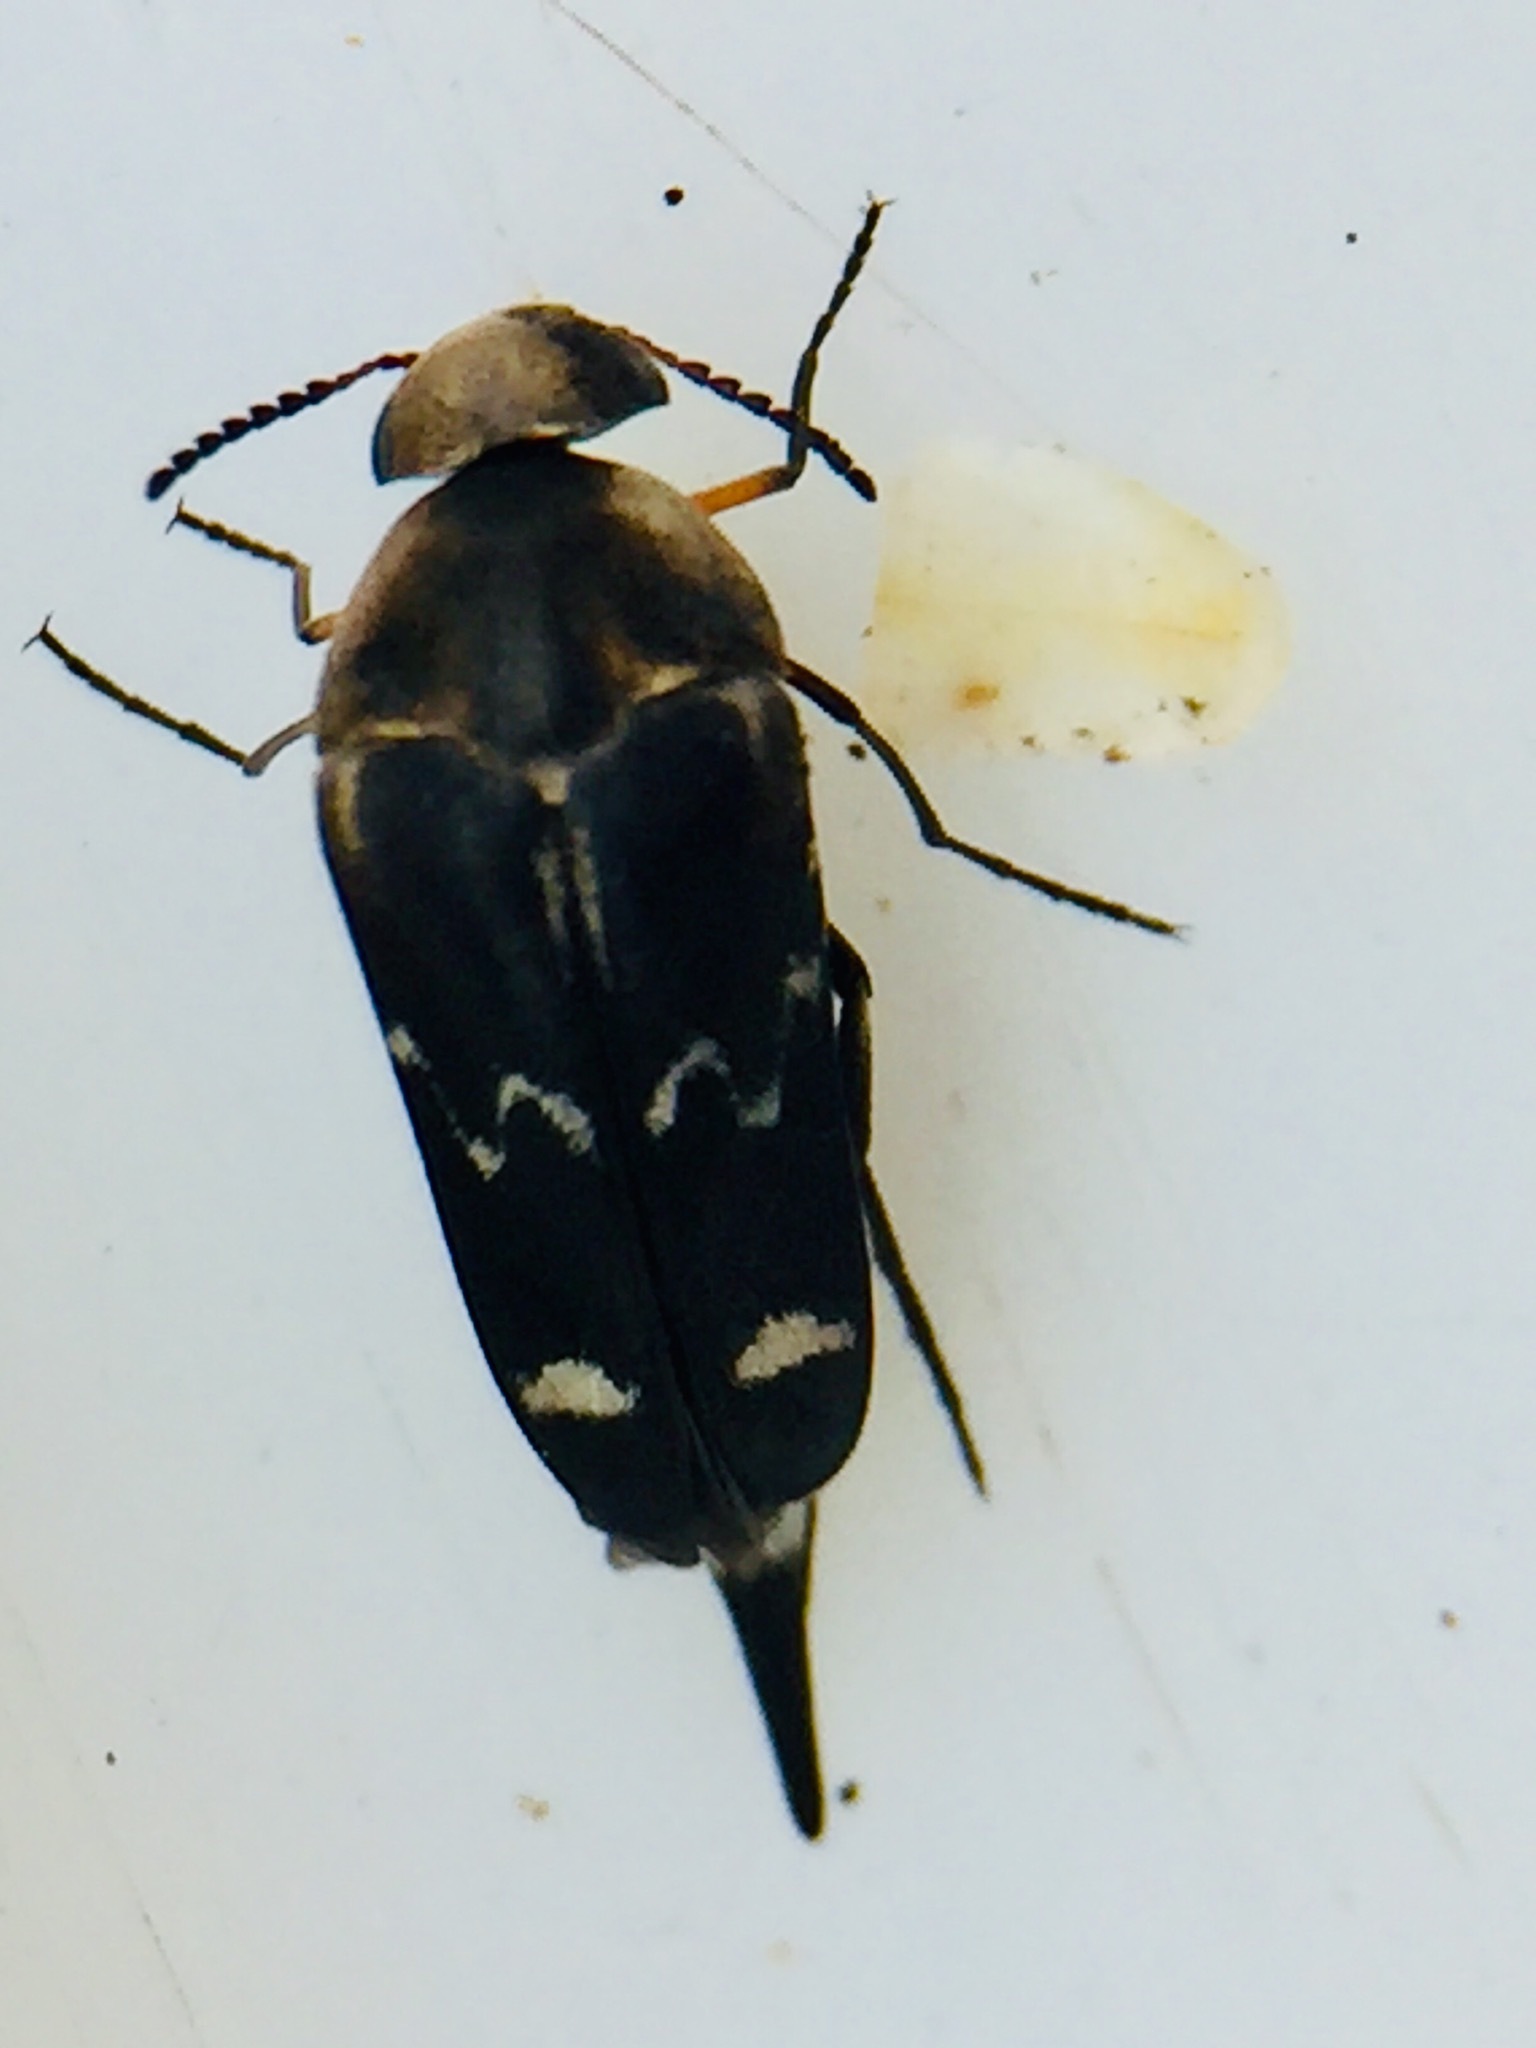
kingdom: Animalia
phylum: Arthropoda
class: Insecta
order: Coleoptera
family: Mordellidae
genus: Mordella
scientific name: Mordella
